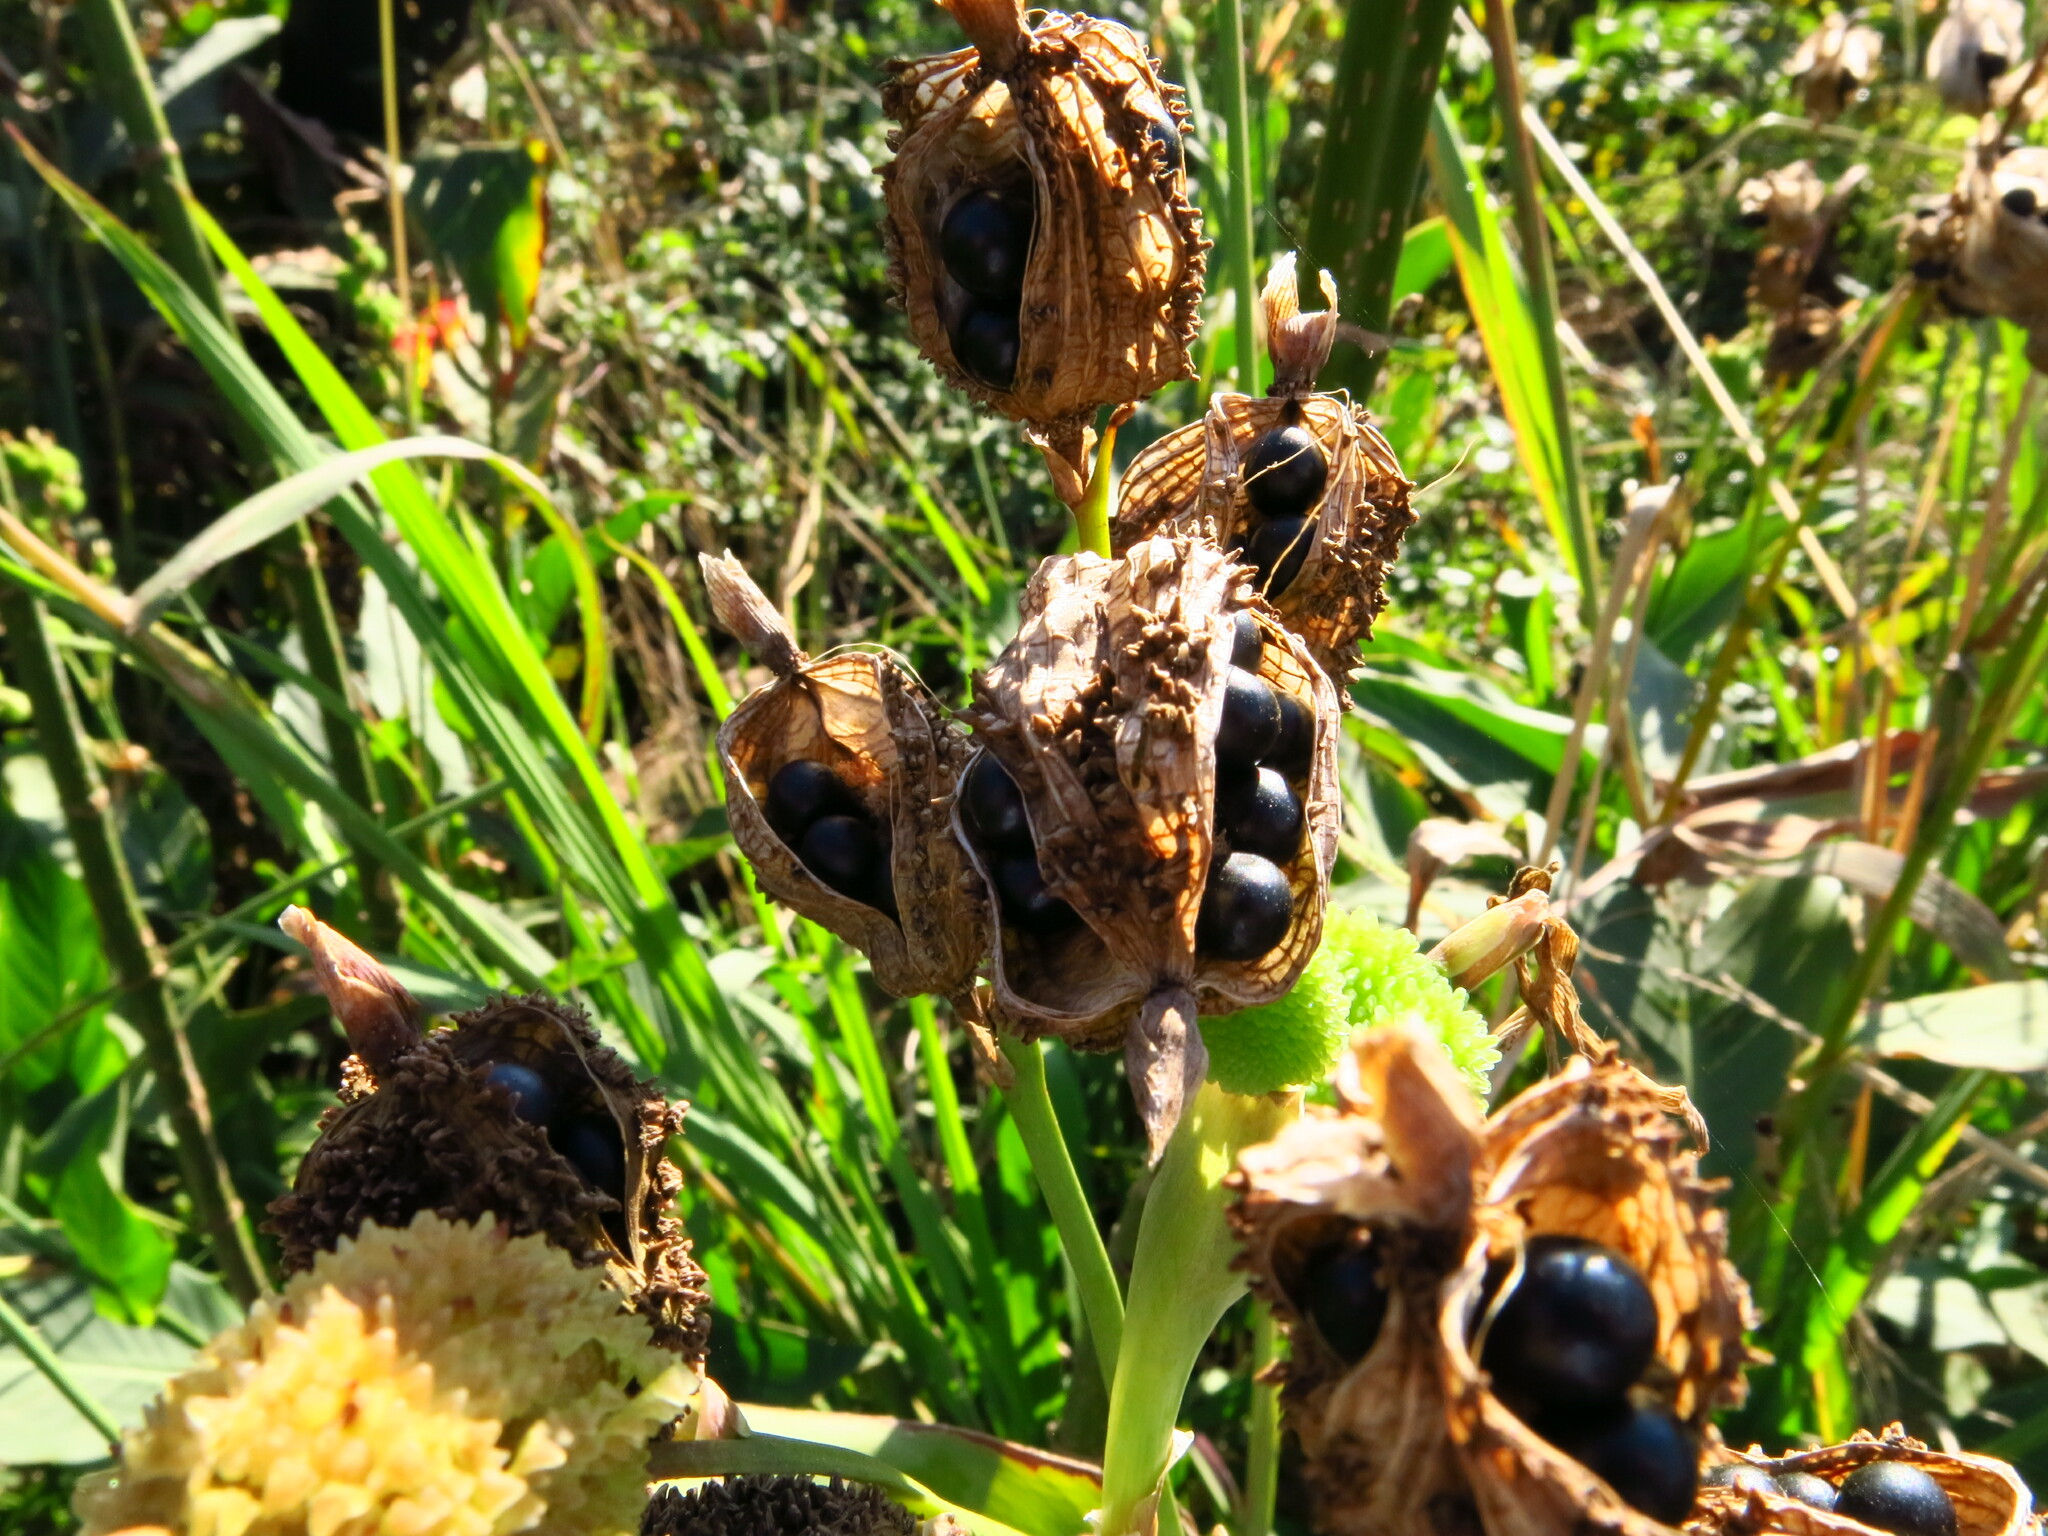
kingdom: Plantae
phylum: Tracheophyta
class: Liliopsida
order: Zingiberales
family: Cannaceae
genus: Canna
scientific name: Canna indica
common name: Indian shot
